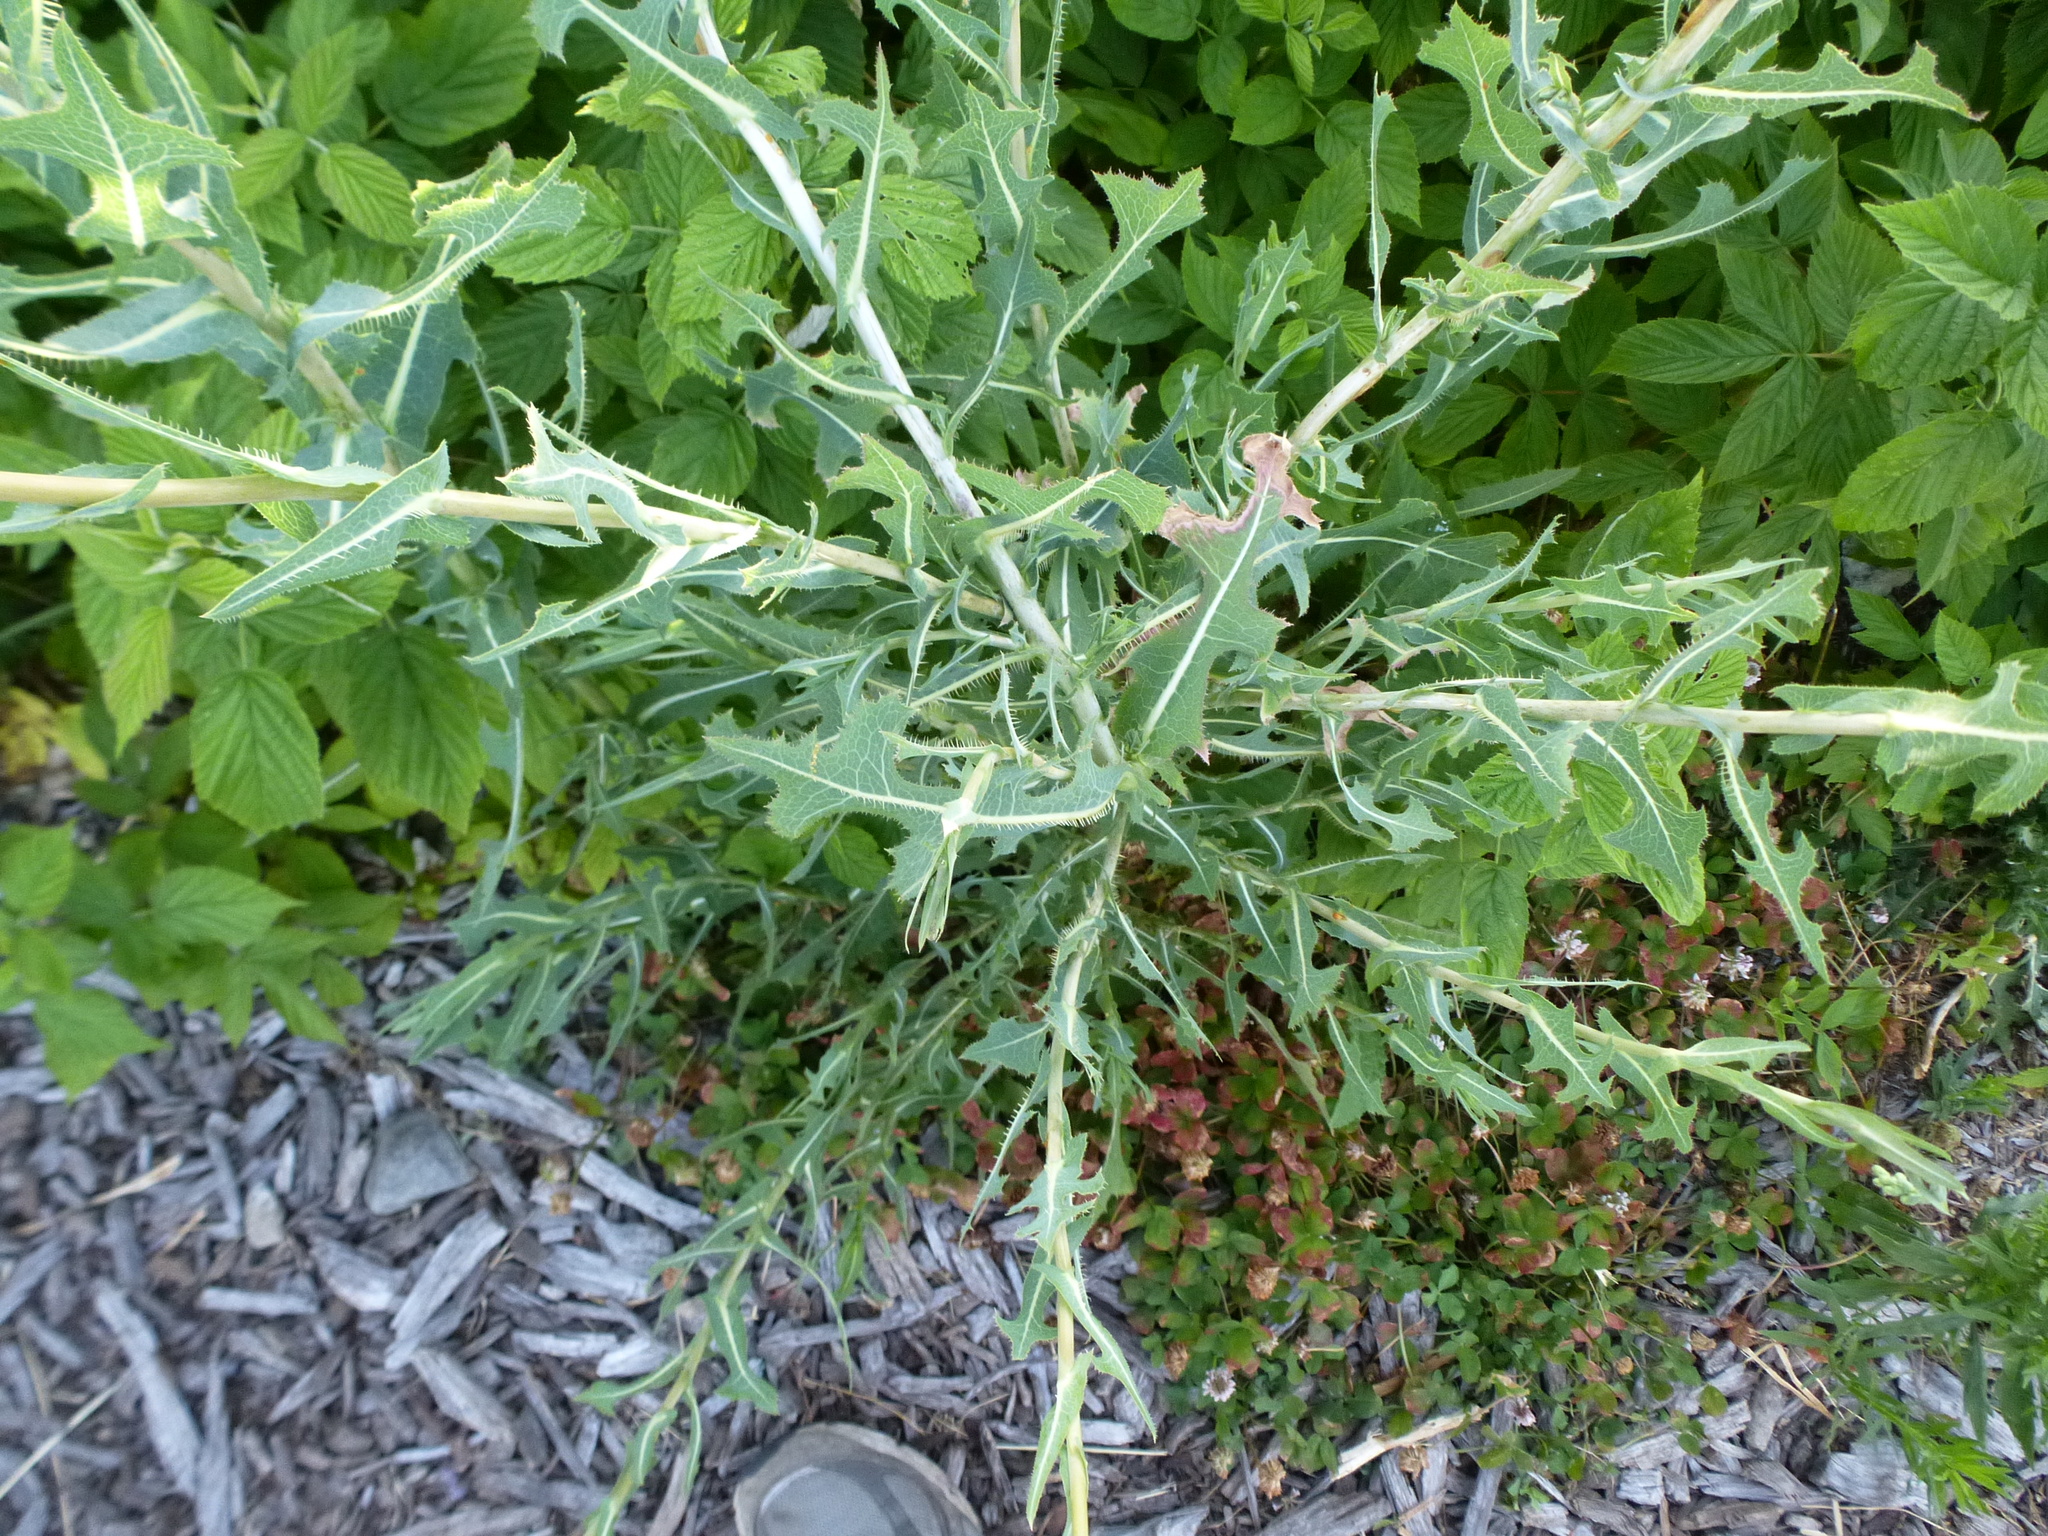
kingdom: Plantae
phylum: Tracheophyta
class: Magnoliopsida
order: Asterales
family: Asteraceae
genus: Lactuca
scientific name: Lactuca serriola
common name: Prickly lettuce
